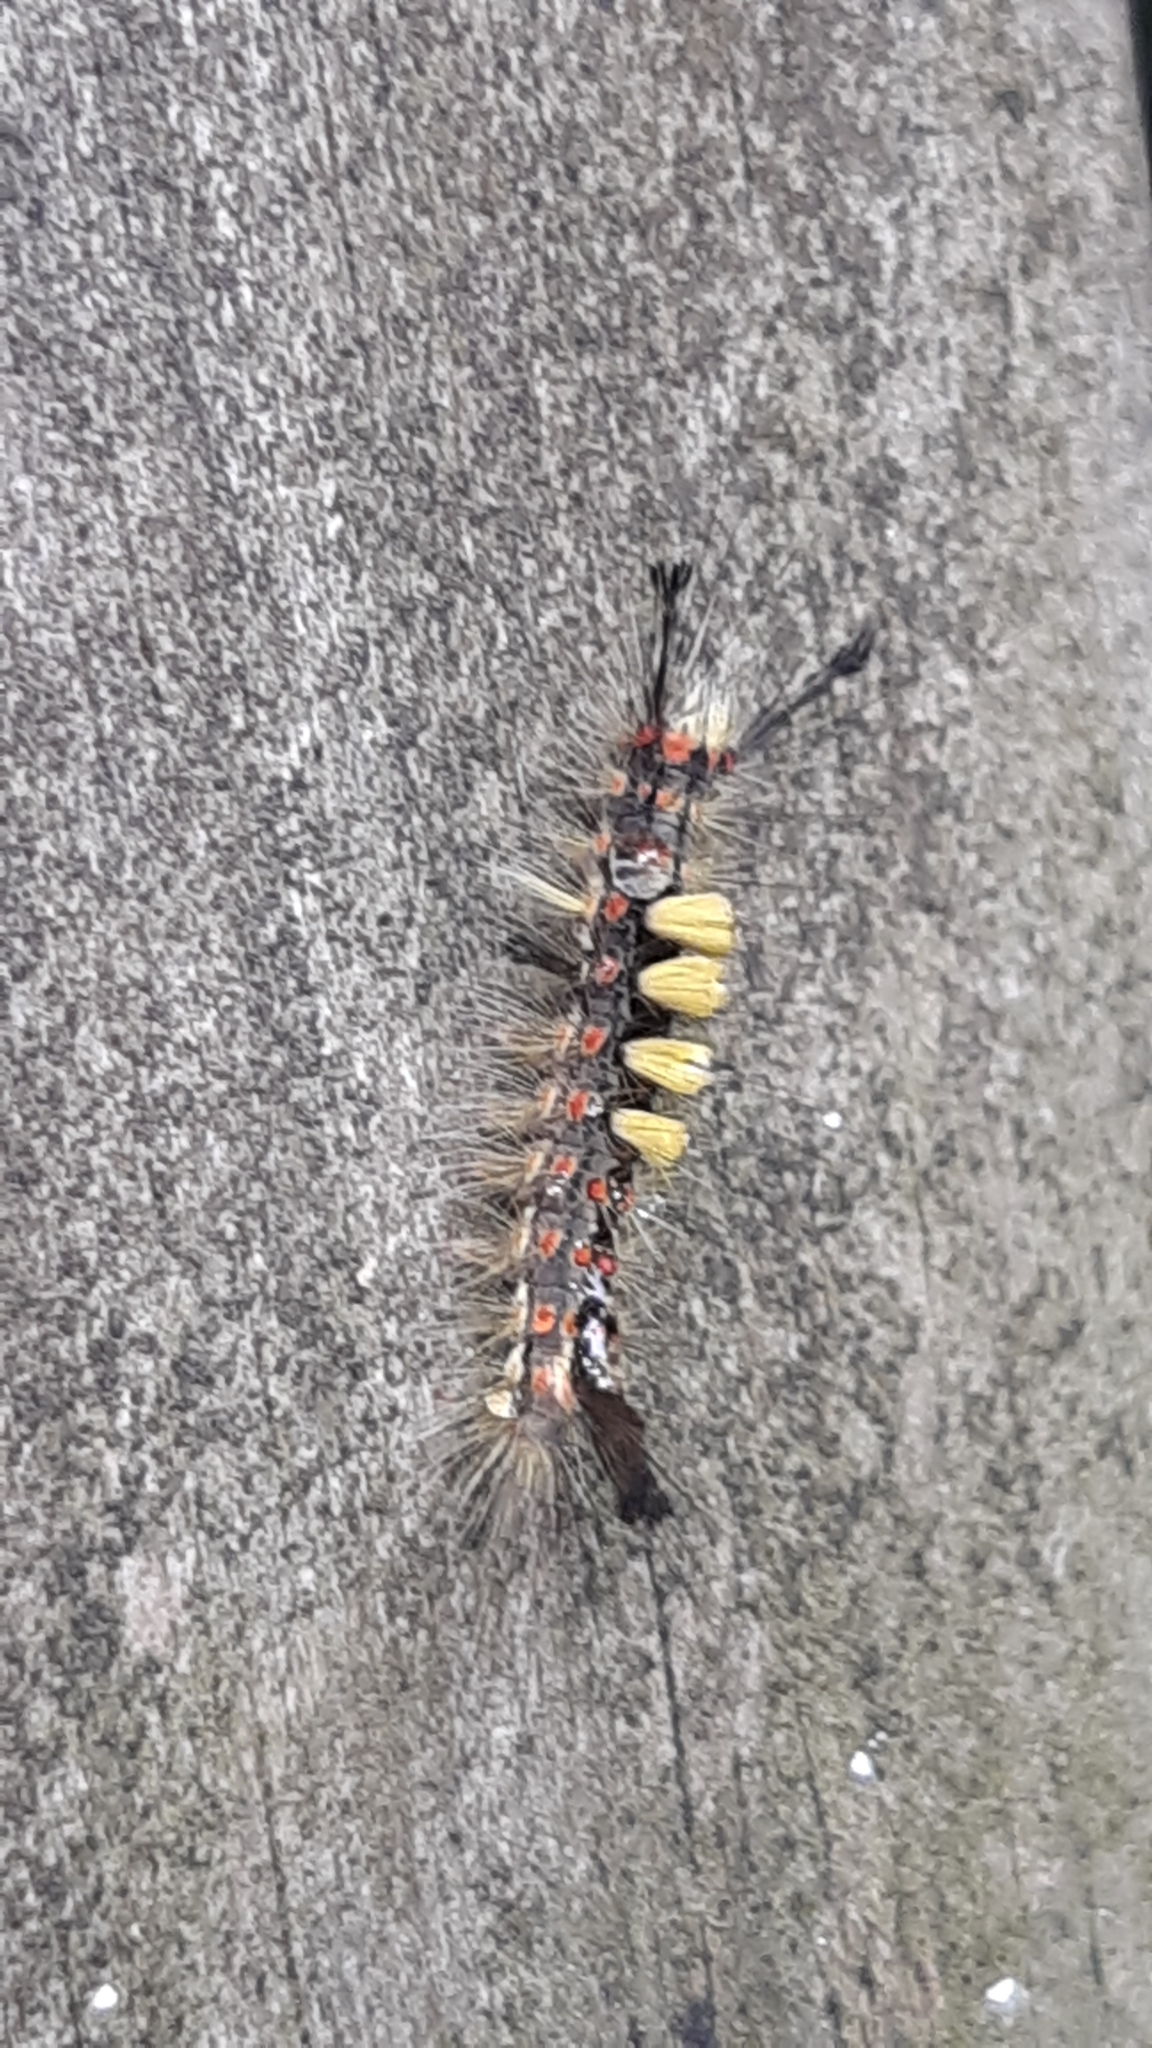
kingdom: Animalia
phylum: Arthropoda
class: Insecta
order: Lepidoptera
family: Erebidae
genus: Orgyia
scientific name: Orgyia antiqua
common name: Vapourer
